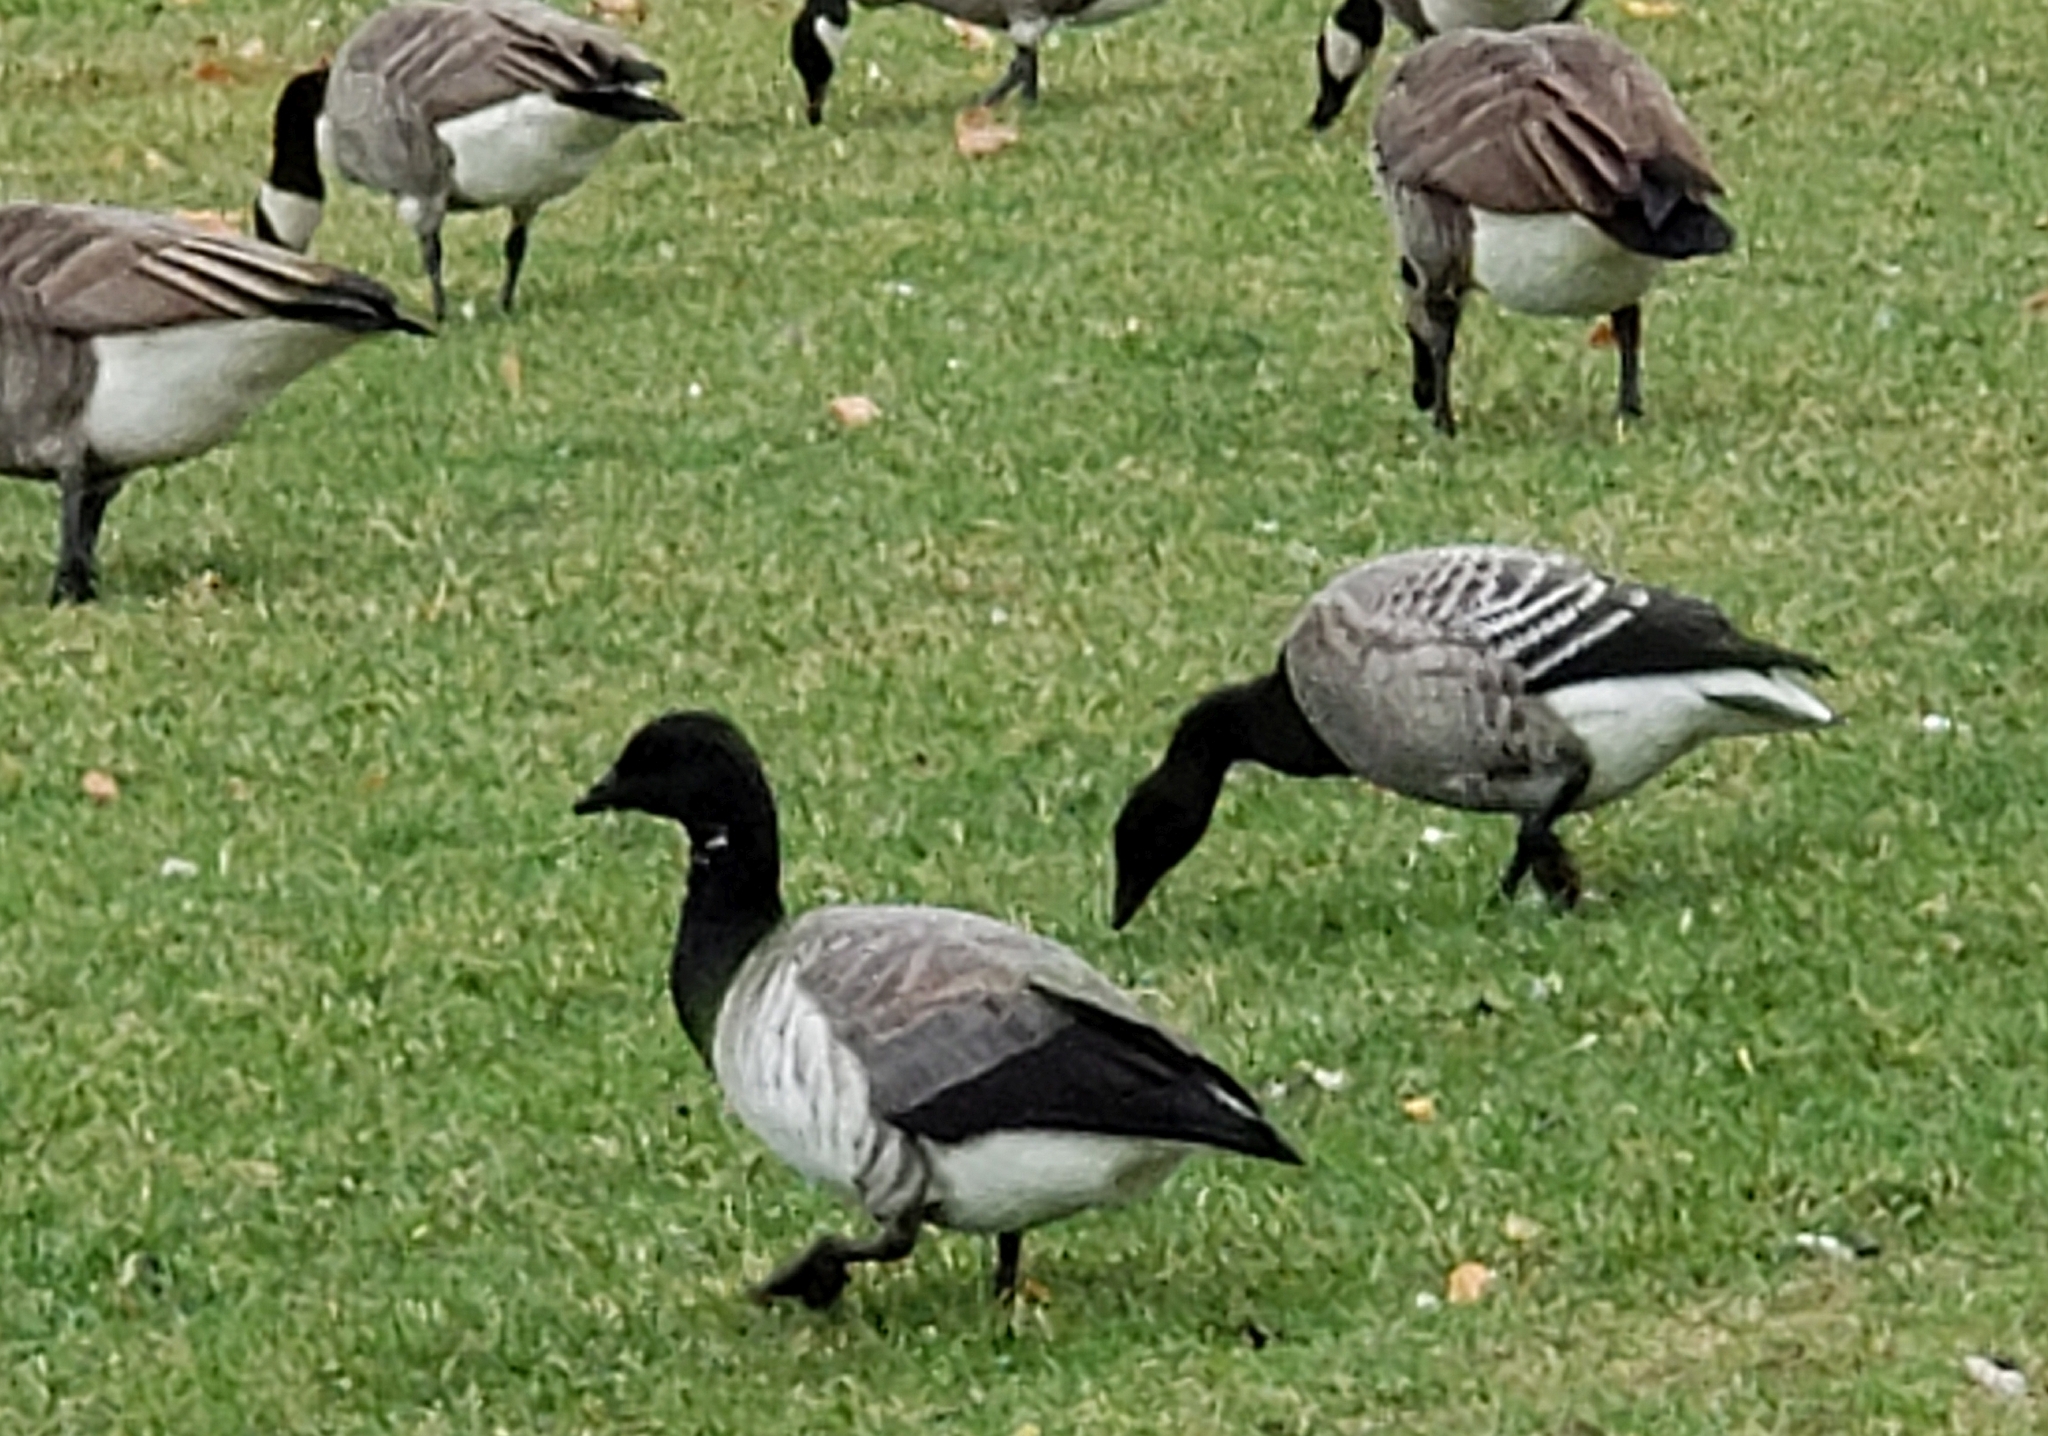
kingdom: Animalia
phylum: Chordata
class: Aves
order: Anseriformes
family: Anatidae
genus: Branta
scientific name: Branta bernicla
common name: Brant goose
